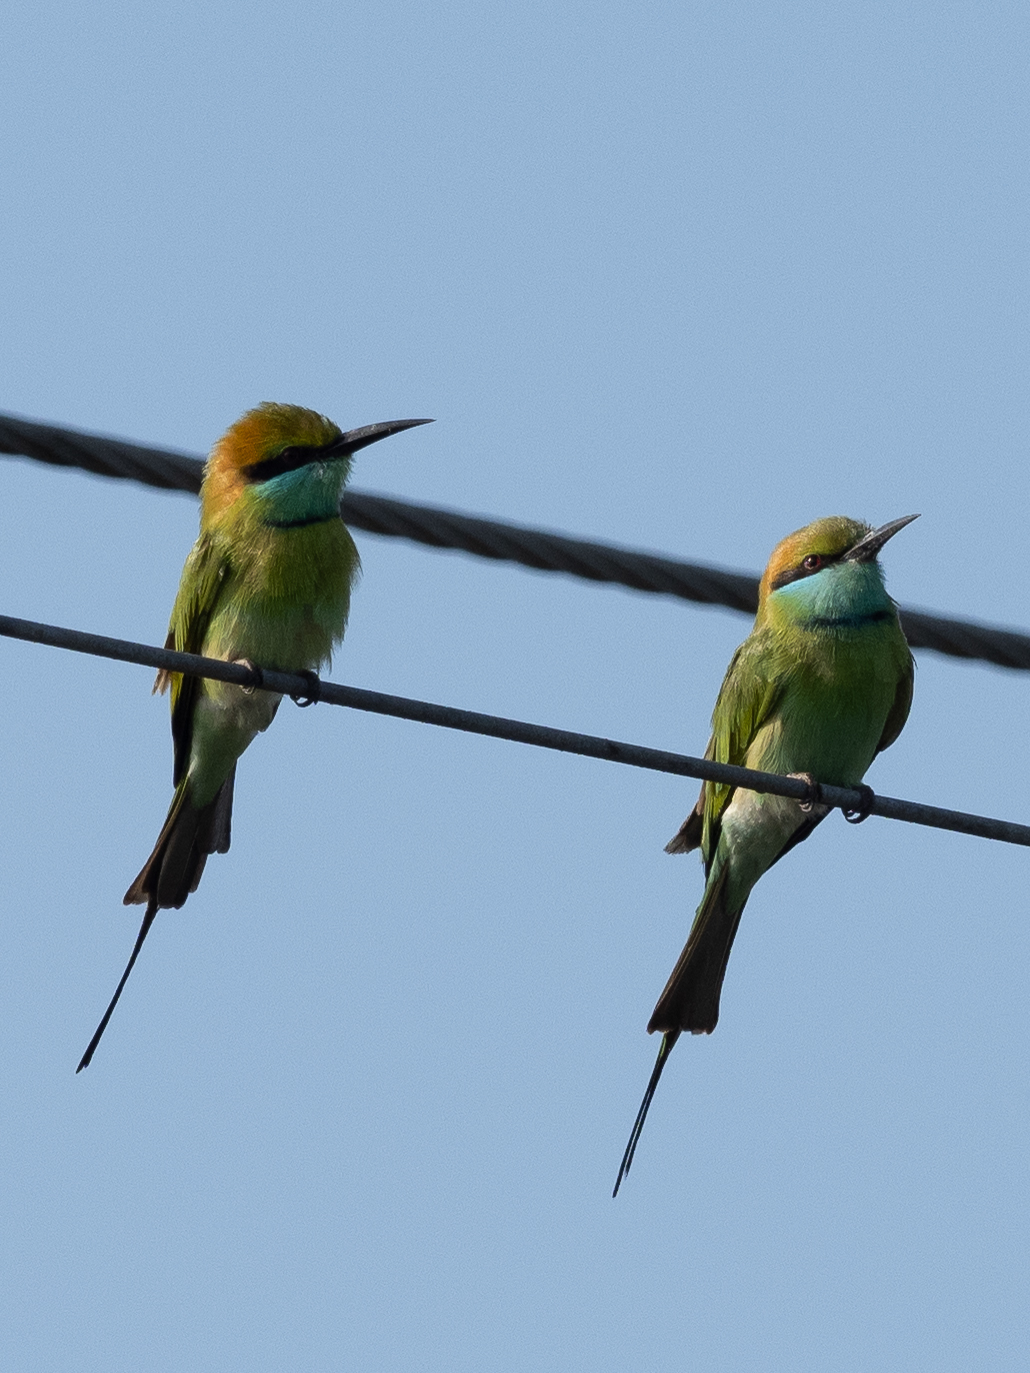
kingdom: Animalia
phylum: Chordata
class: Aves
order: Coraciiformes
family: Meropidae
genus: Merops
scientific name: Merops orientalis
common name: Green bee-eater
